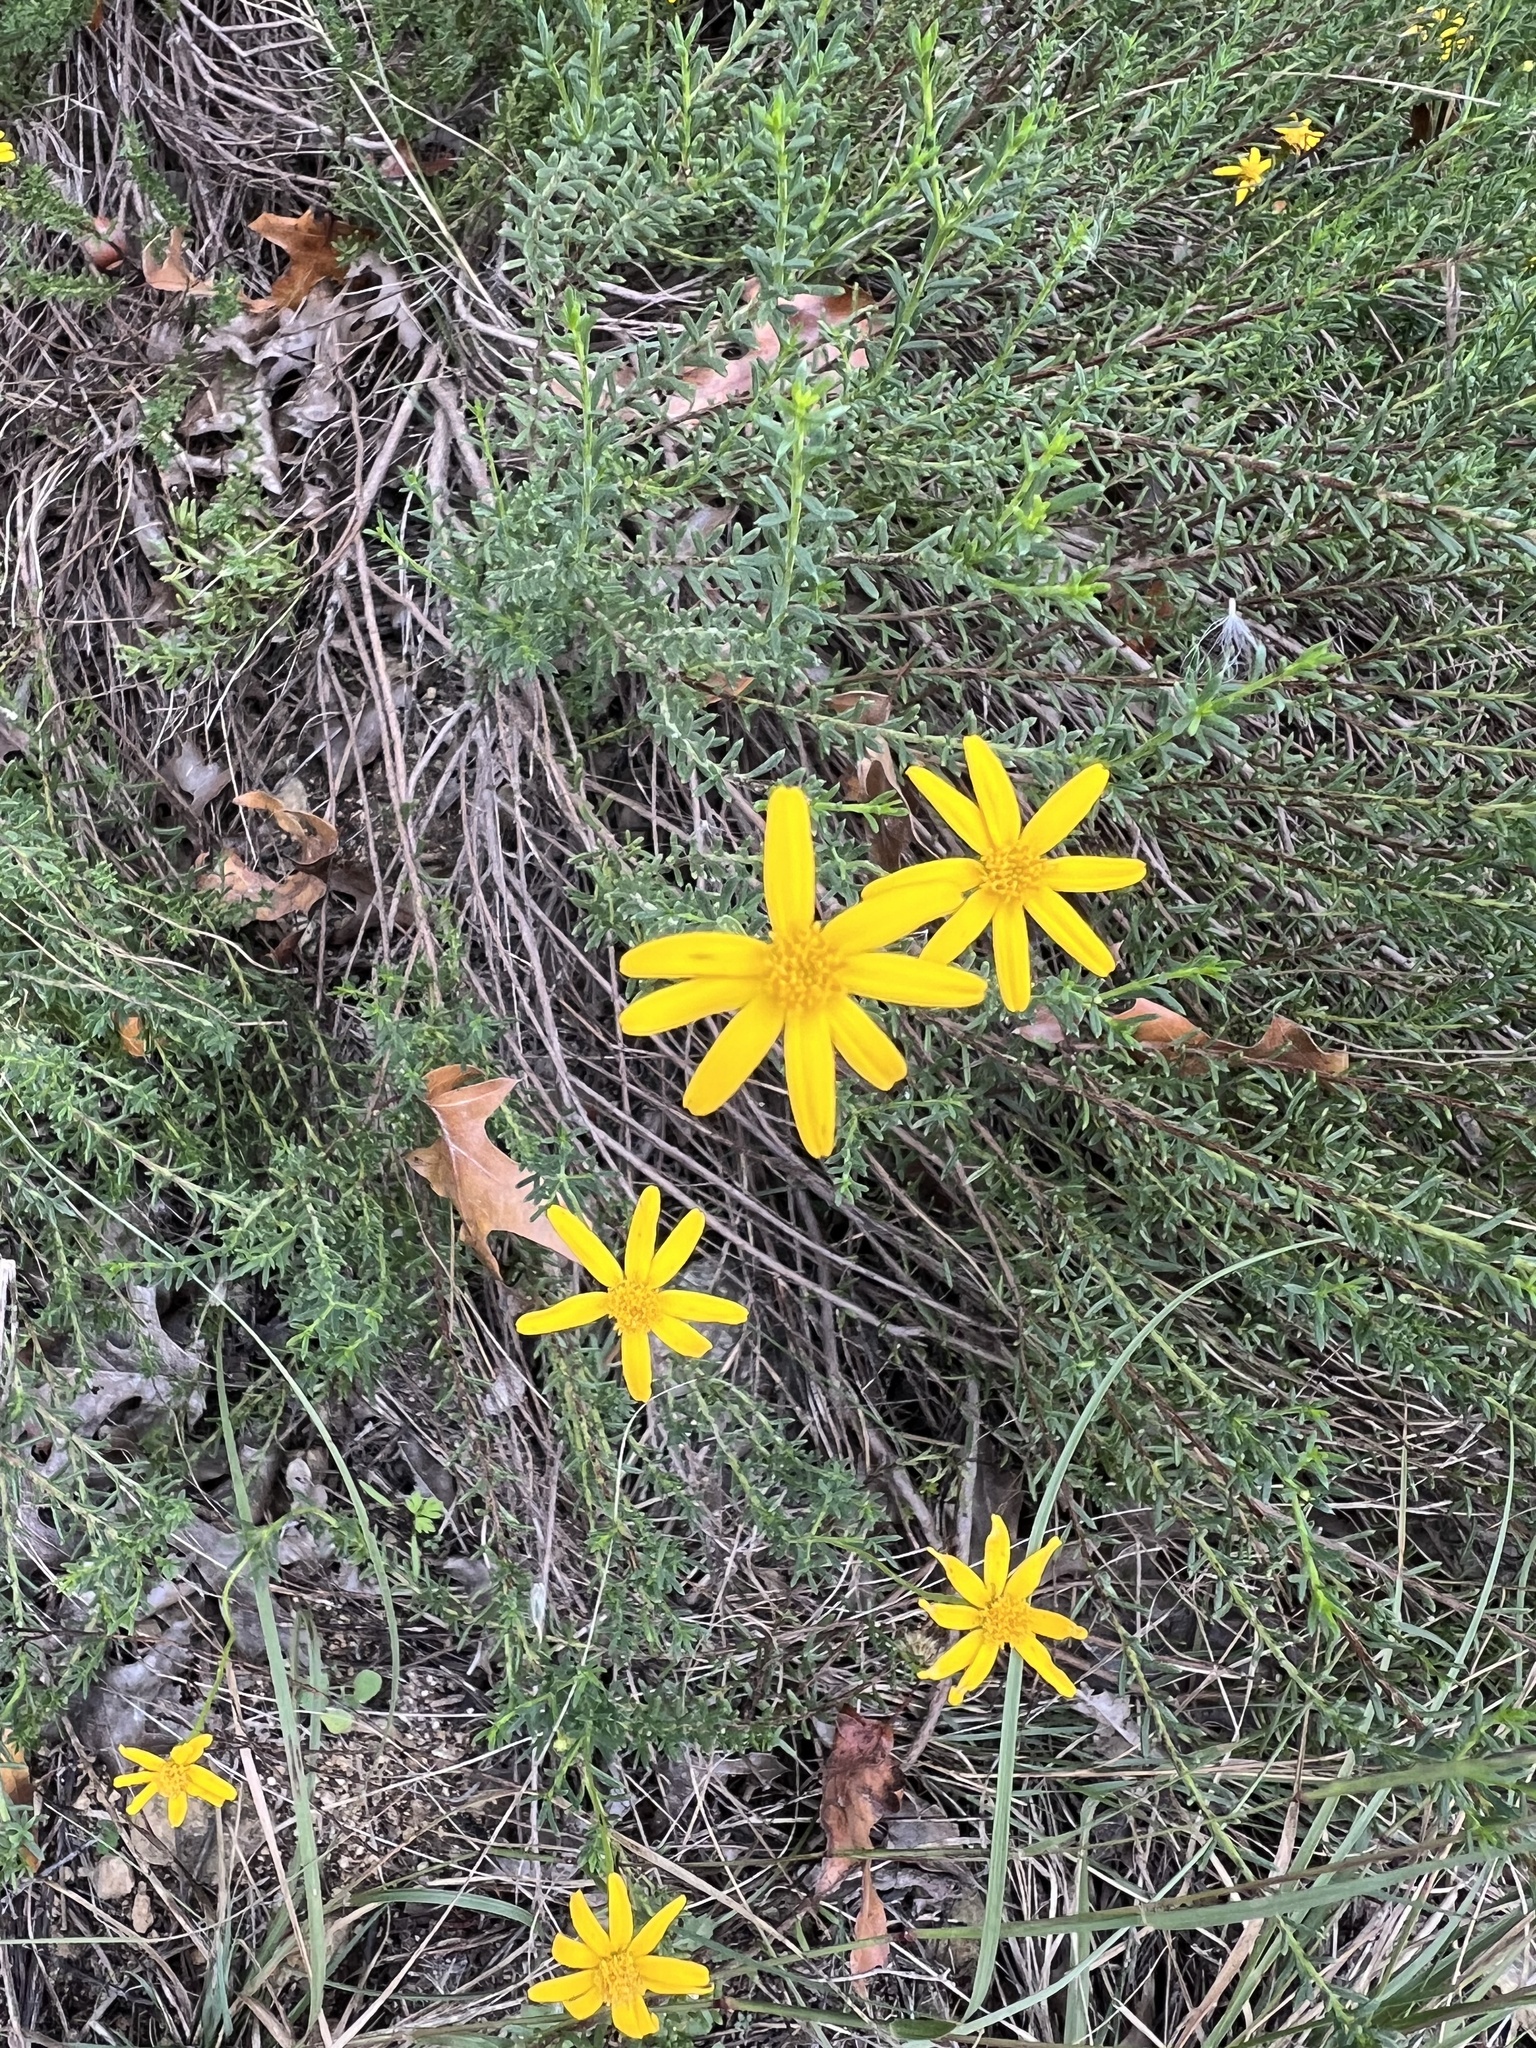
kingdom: Plantae
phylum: Tracheophyta
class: Magnoliopsida
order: Asterales
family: Asteraceae
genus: Chrysactinia
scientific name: Chrysactinia mexicana
